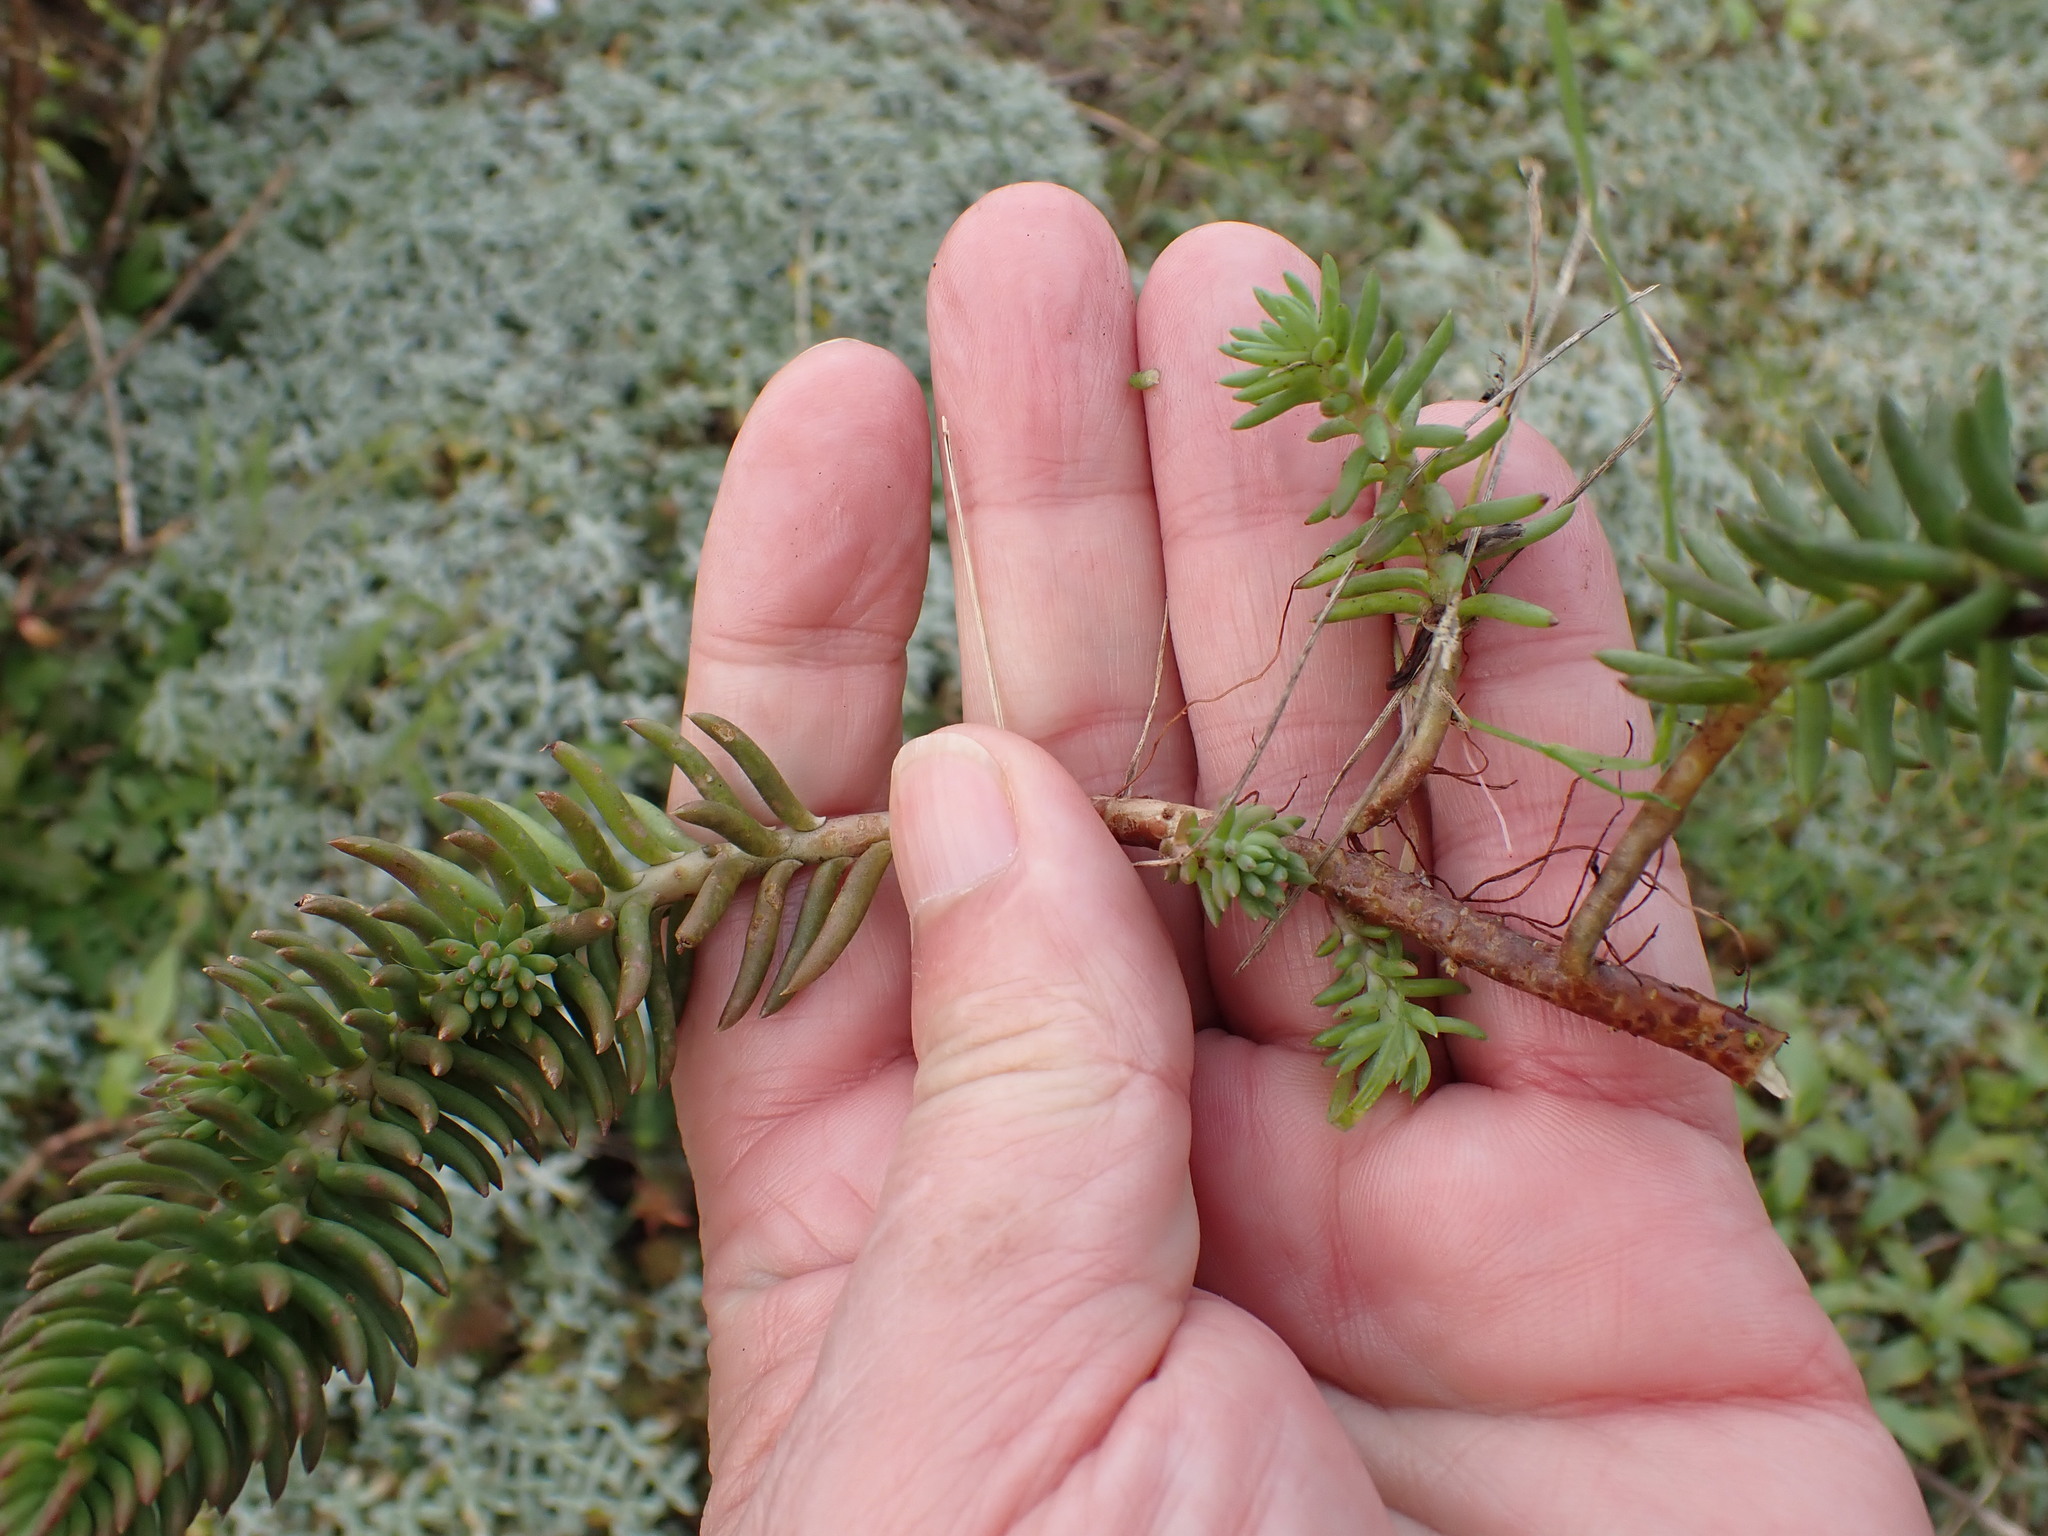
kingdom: Plantae
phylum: Tracheophyta
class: Magnoliopsida
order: Saxifragales
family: Crassulaceae
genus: Petrosedum
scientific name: Petrosedum rupestre
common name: Jenny's stonecrop
